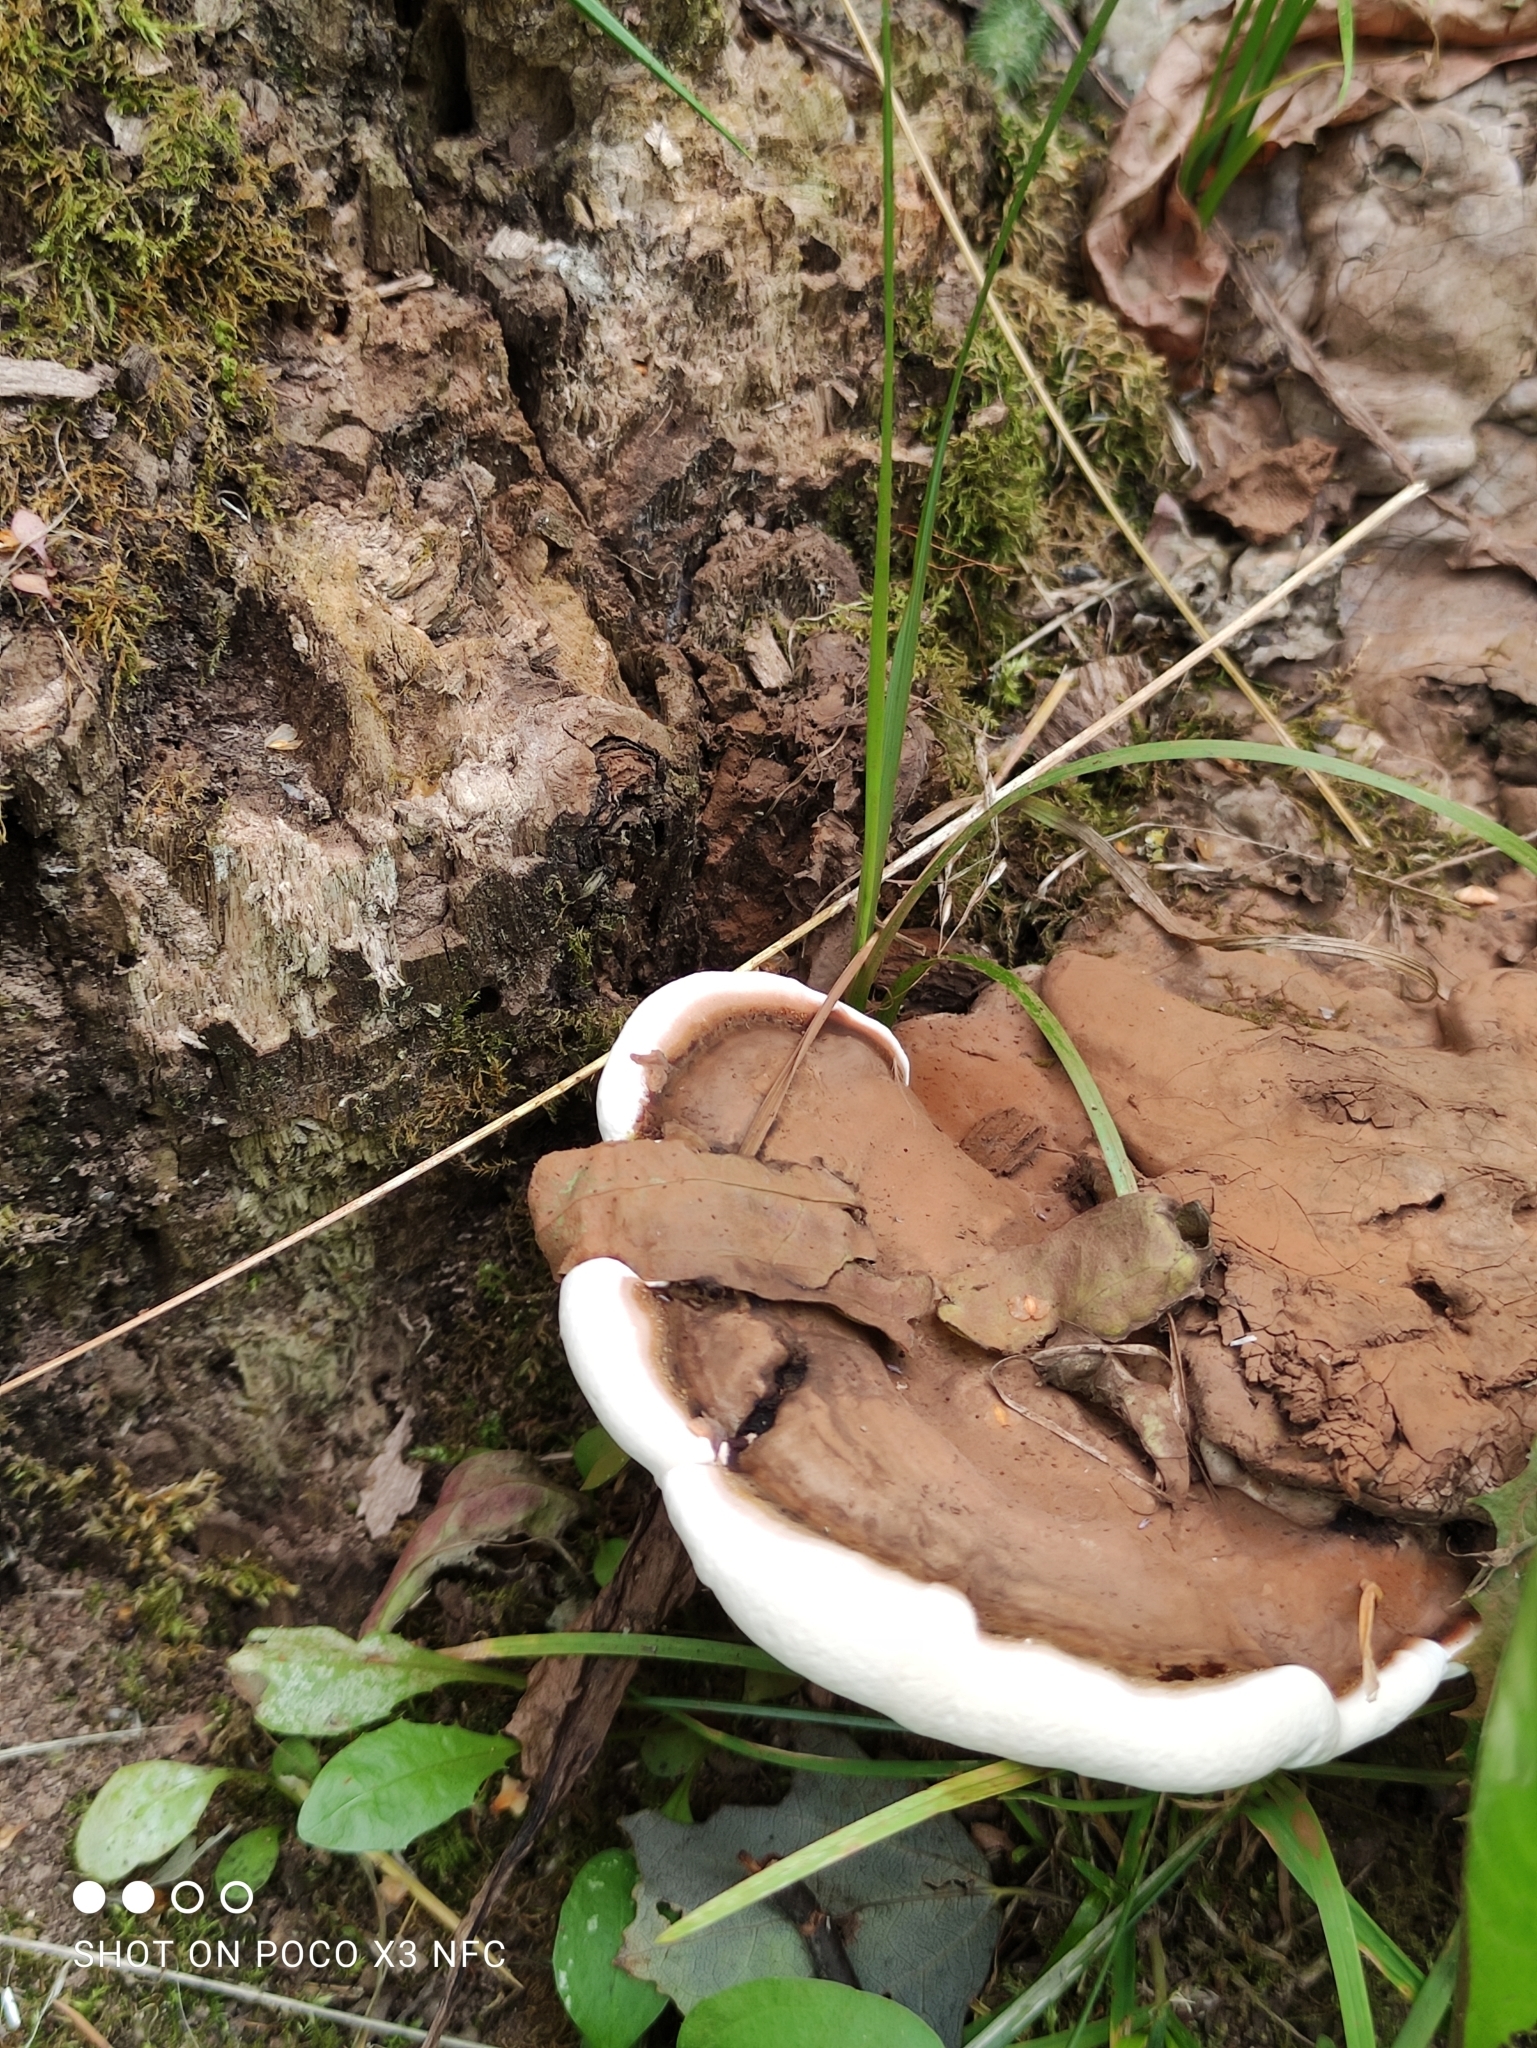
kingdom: Fungi
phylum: Basidiomycota
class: Agaricomycetes
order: Polyporales
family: Polyporaceae
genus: Ganoderma
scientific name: Ganoderma applanatum
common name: Artist's bracket
